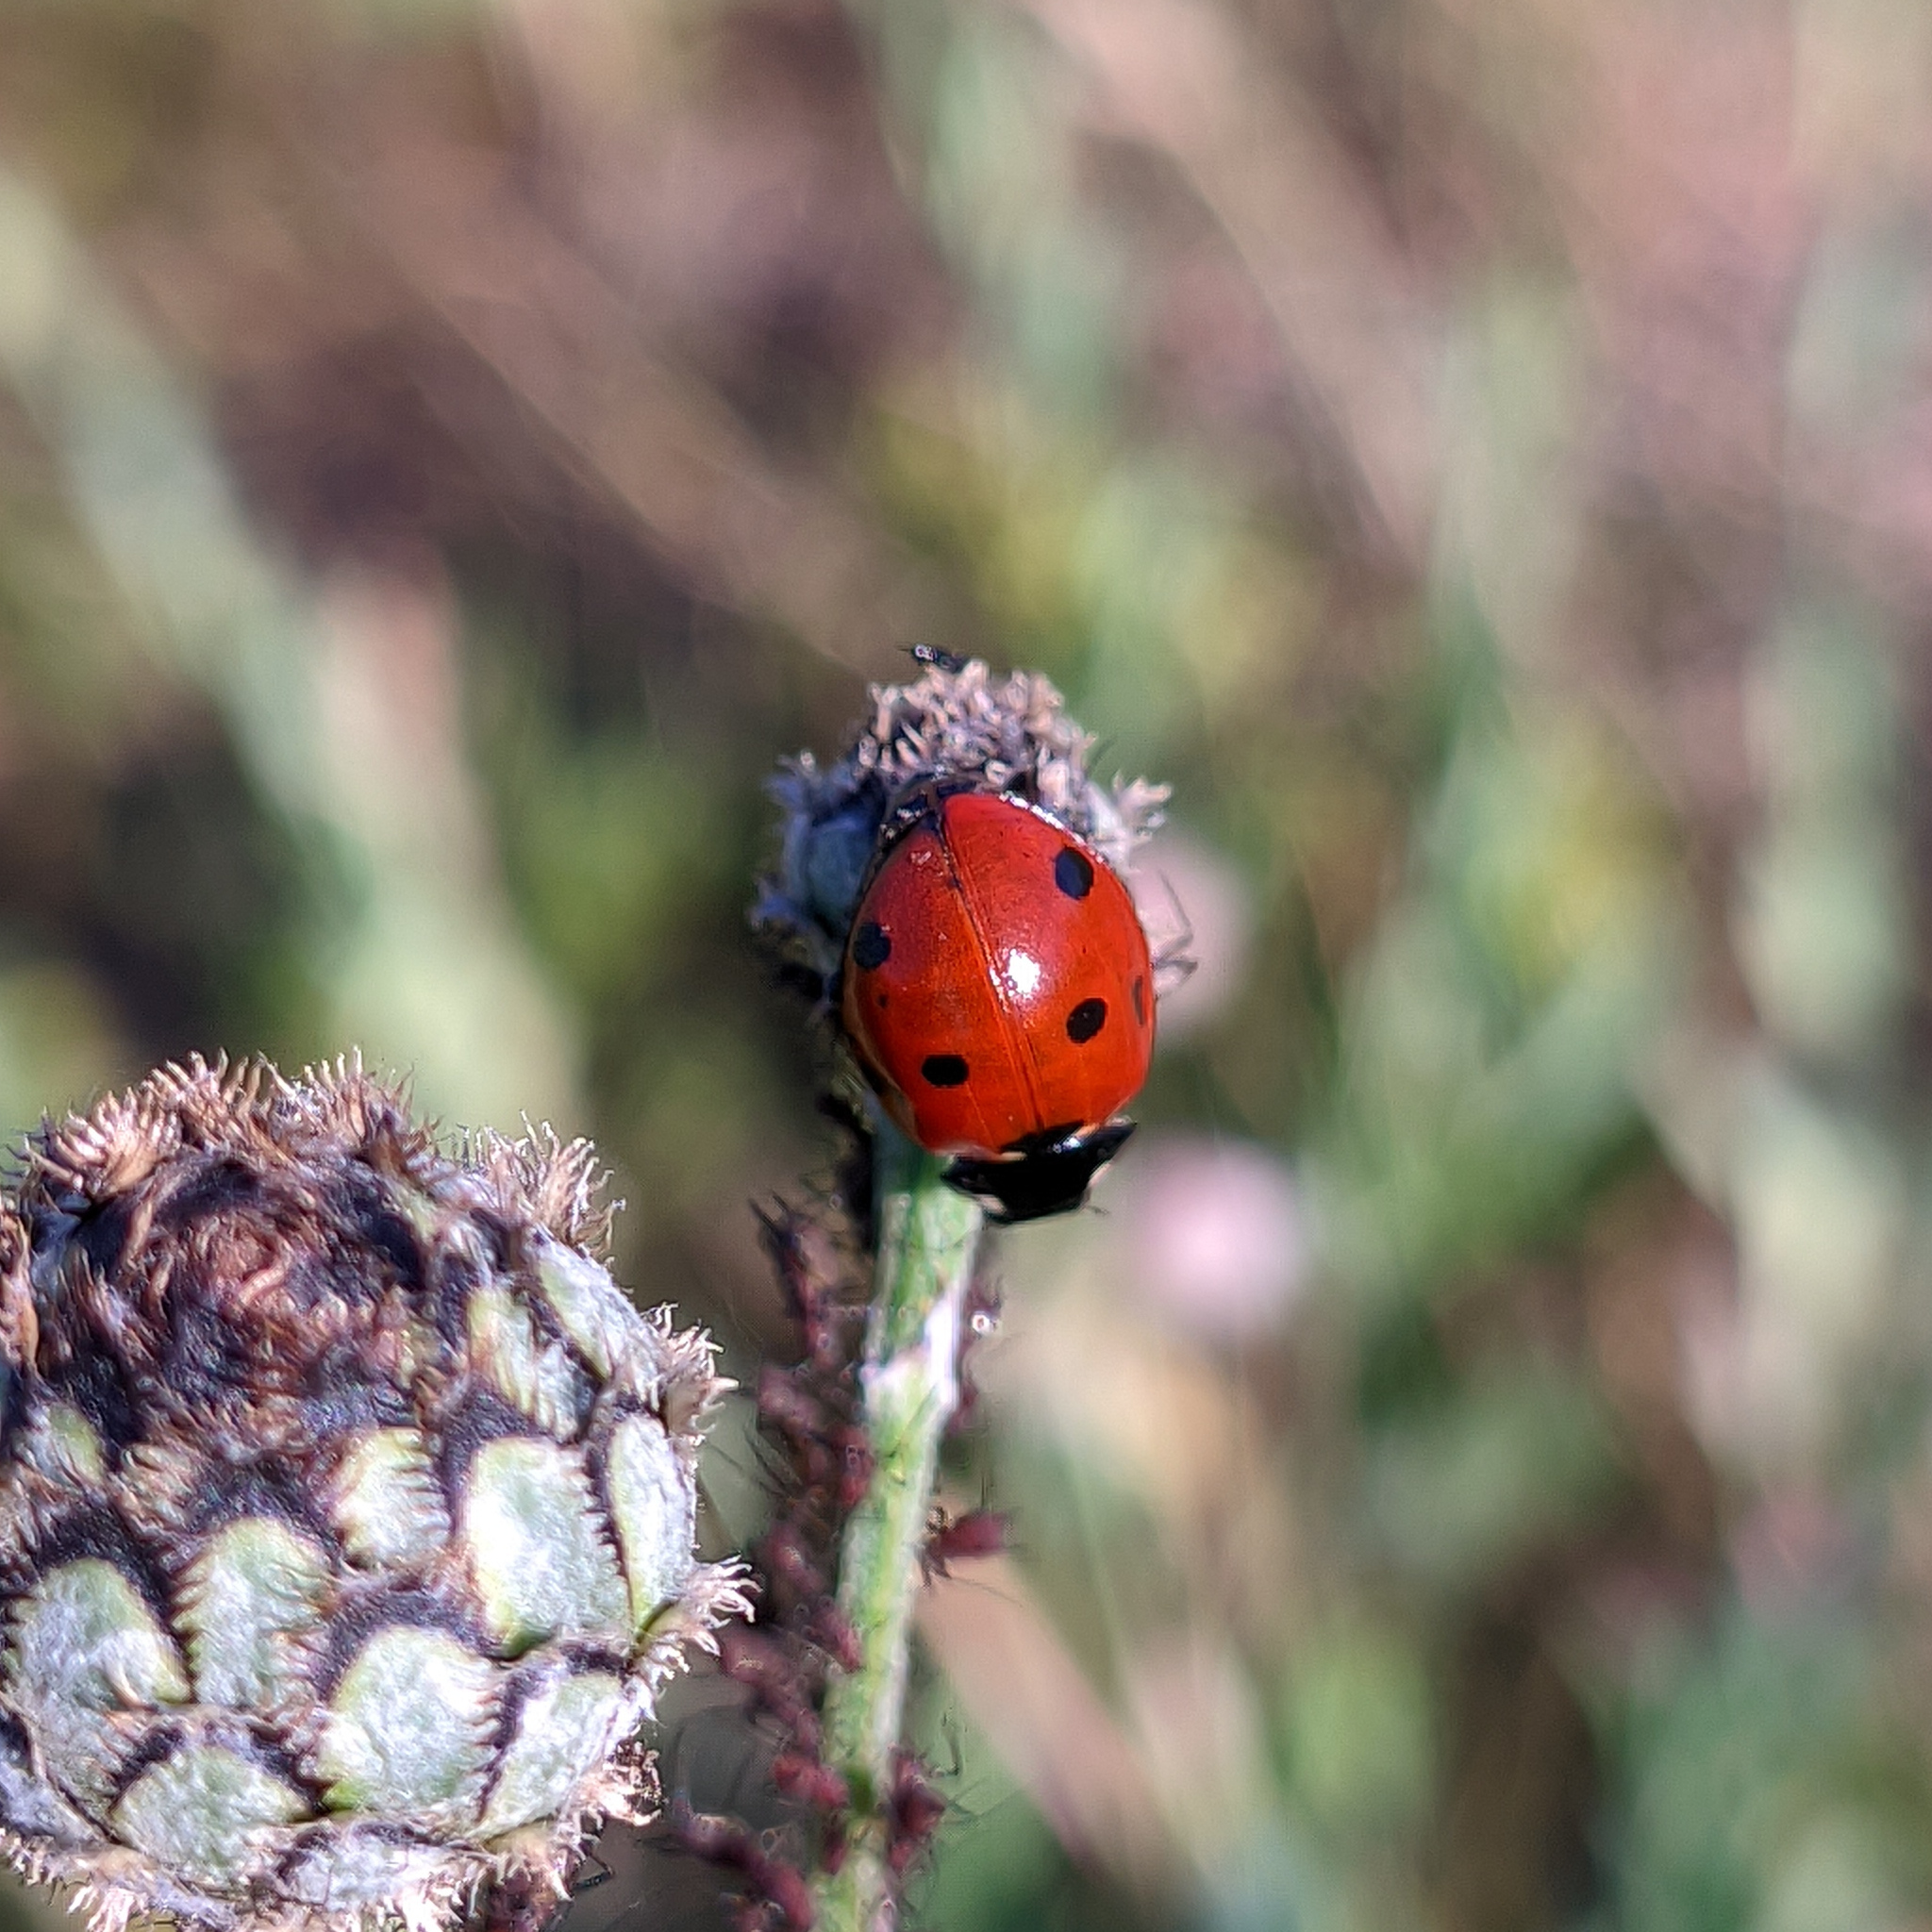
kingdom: Animalia
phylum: Arthropoda
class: Insecta
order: Coleoptera
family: Coccinellidae
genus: Coccinella
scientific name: Coccinella septempunctata
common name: Sevenspotted lady beetle
